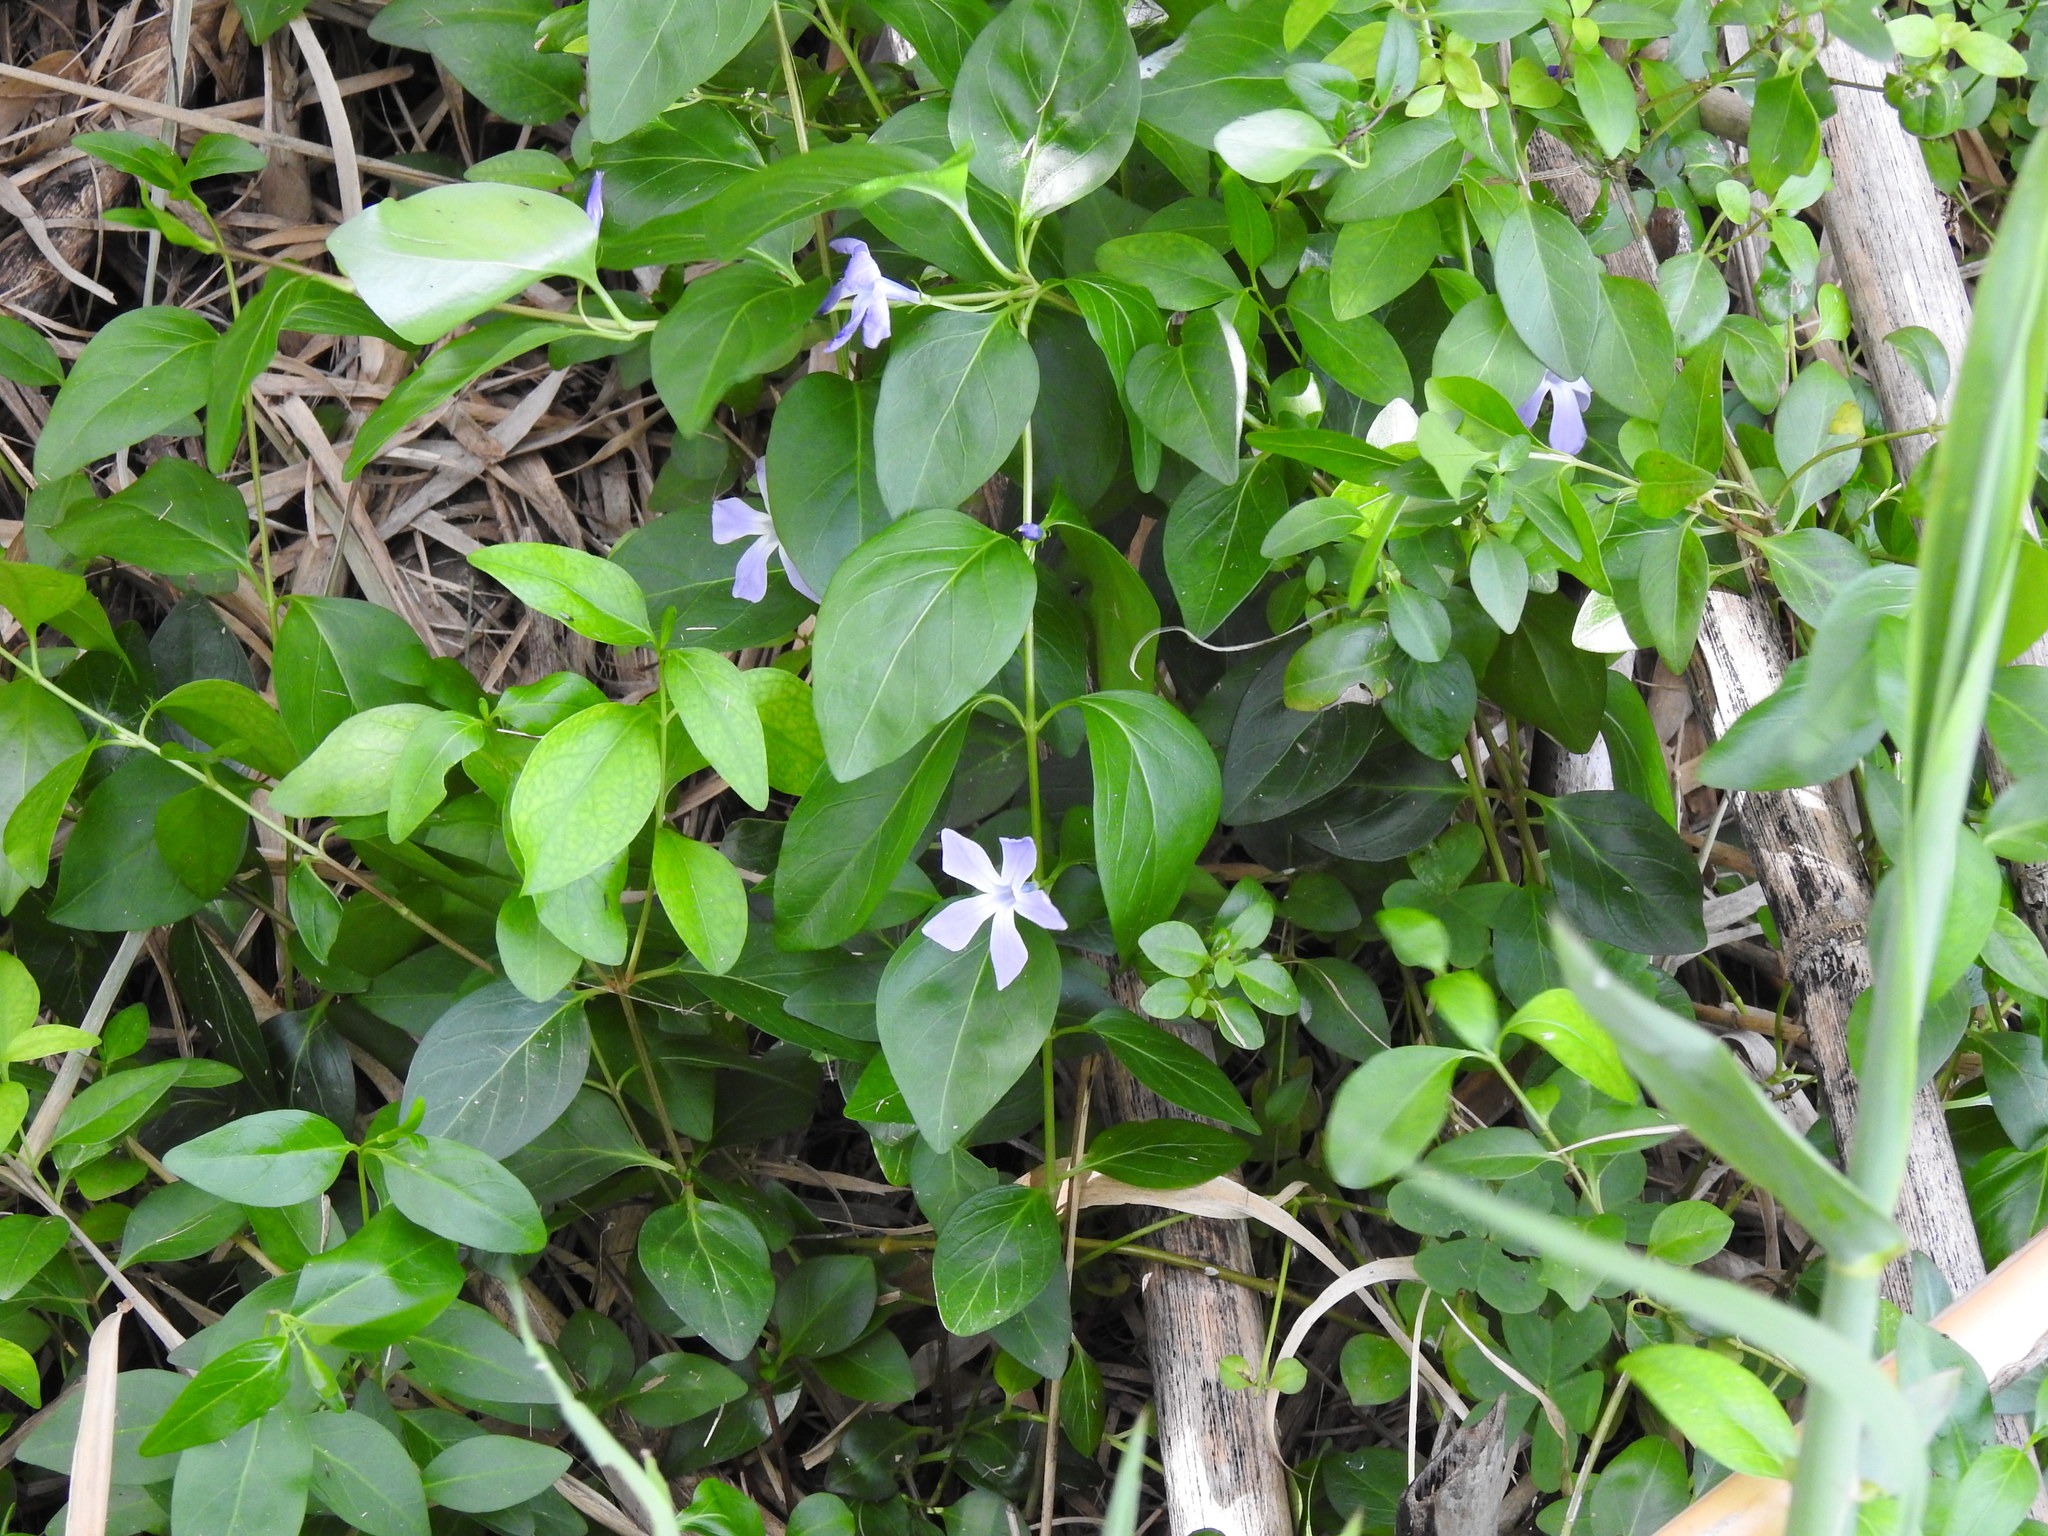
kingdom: Plantae
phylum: Tracheophyta
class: Magnoliopsida
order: Gentianales
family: Apocynaceae
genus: Vinca
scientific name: Vinca difformis
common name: Intermediate periwinkle
